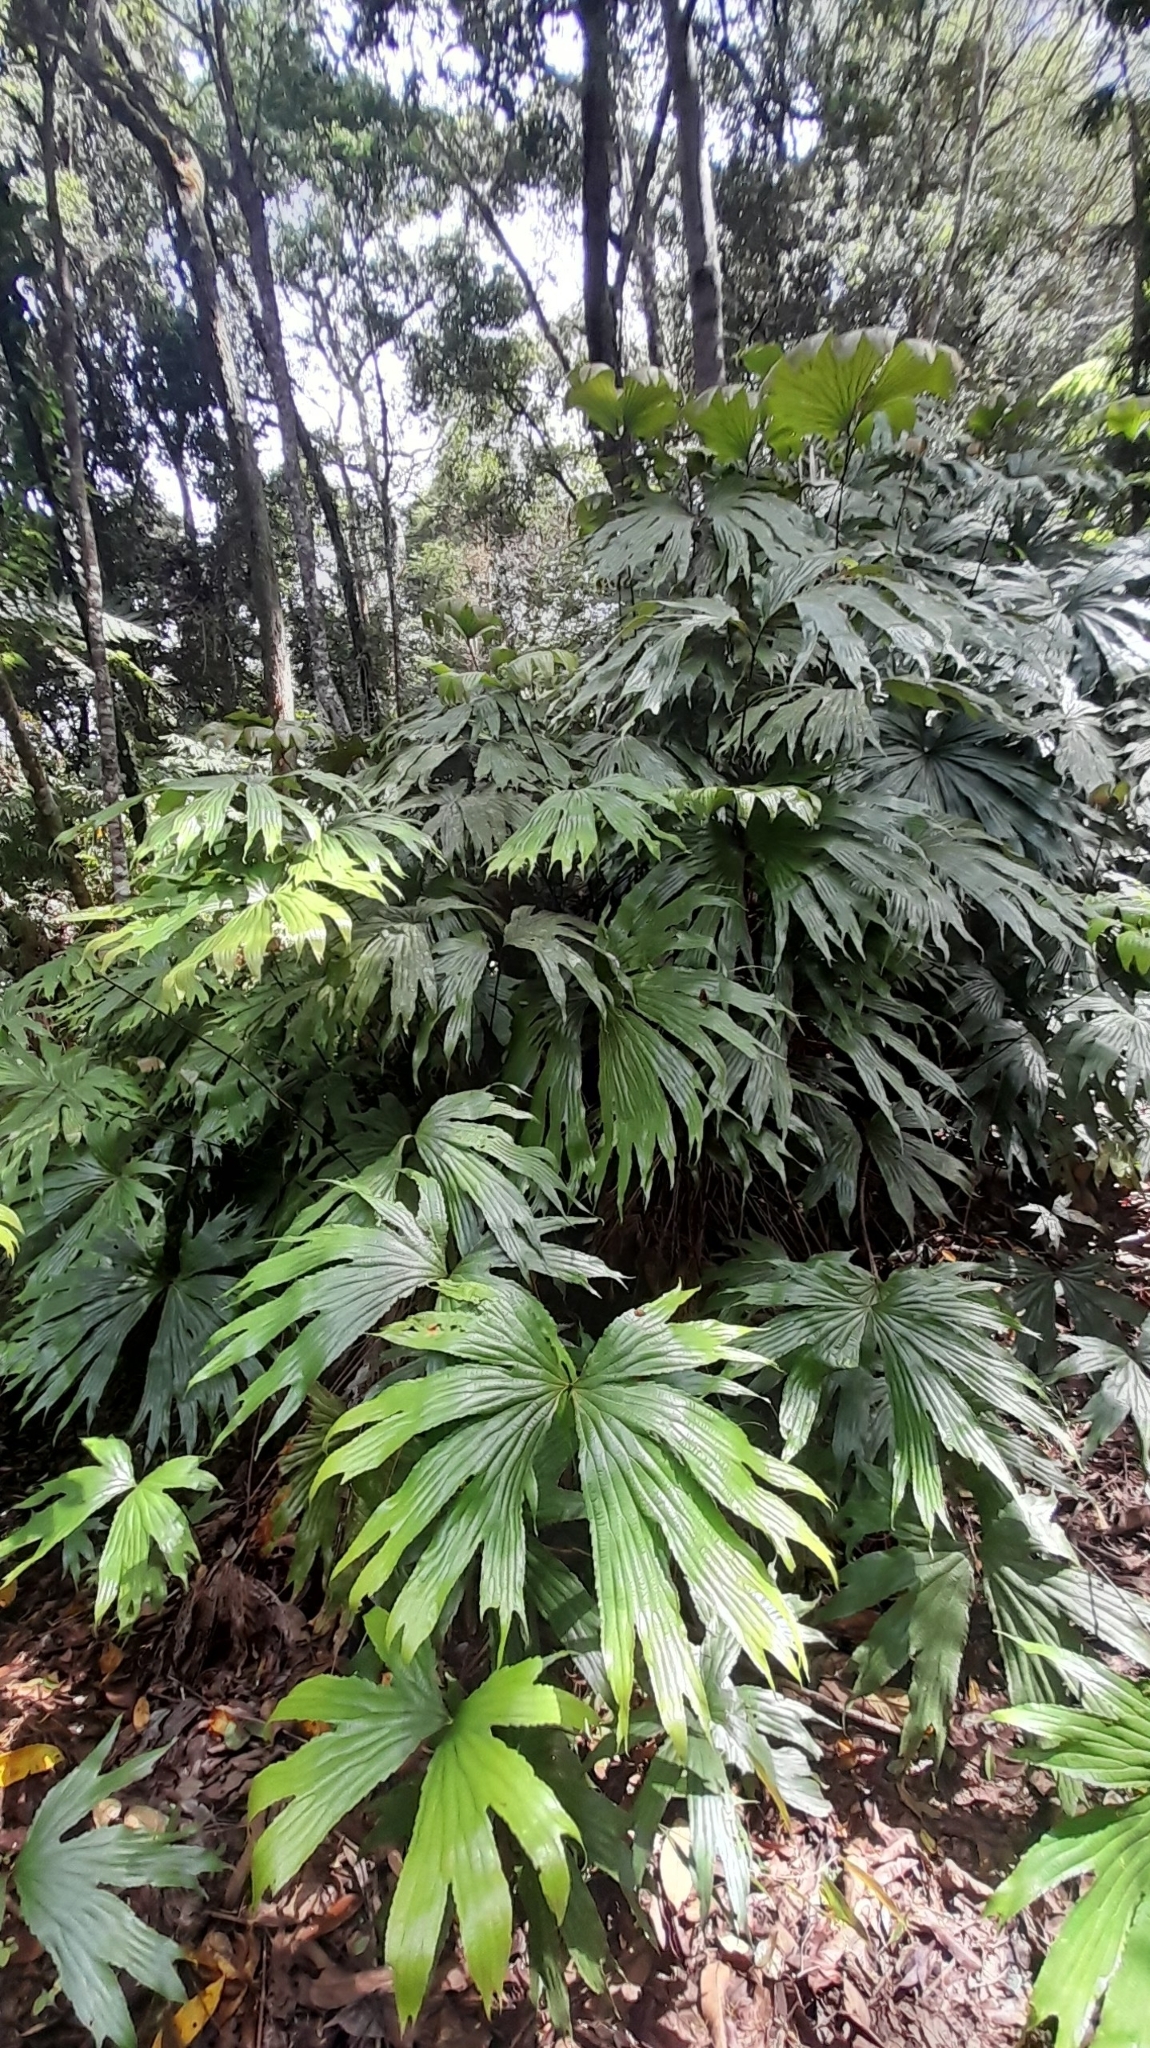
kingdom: Plantae
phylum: Tracheophyta
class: Polypodiopsida
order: Gleicheniales
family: Dipteridaceae
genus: Dipteris
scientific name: Dipteris conjugata
